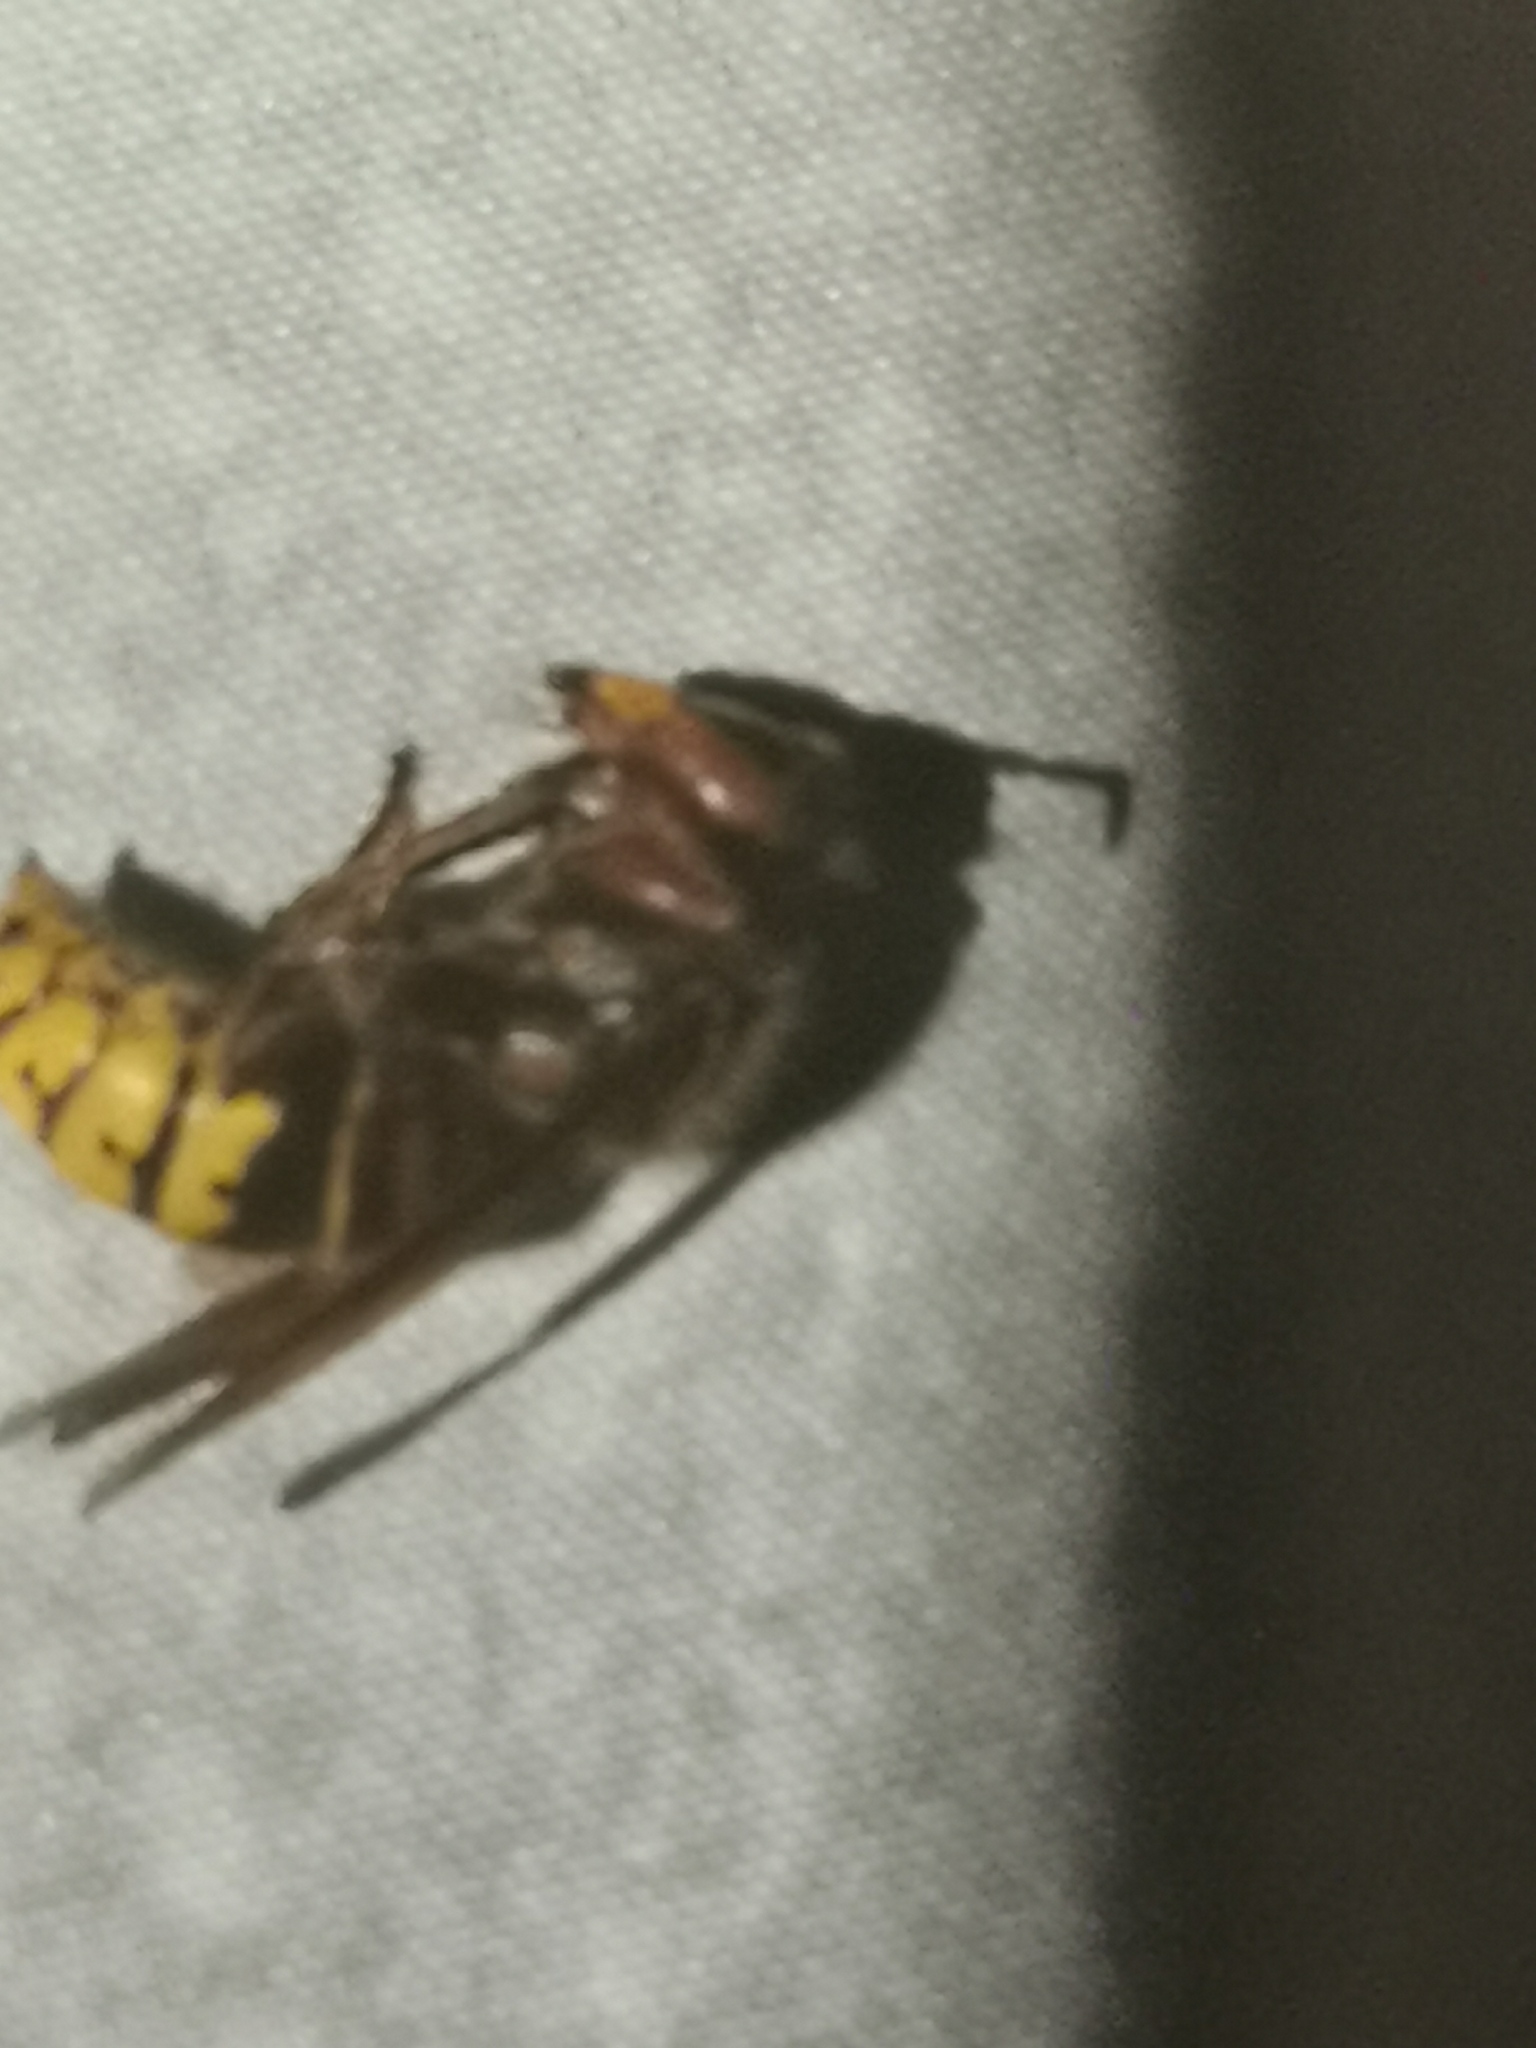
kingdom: Animalia
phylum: Arthropoda
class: Insecta
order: Hymenoptera
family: Vespidae
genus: Vespa
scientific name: Vespa crabro
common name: Hornet
